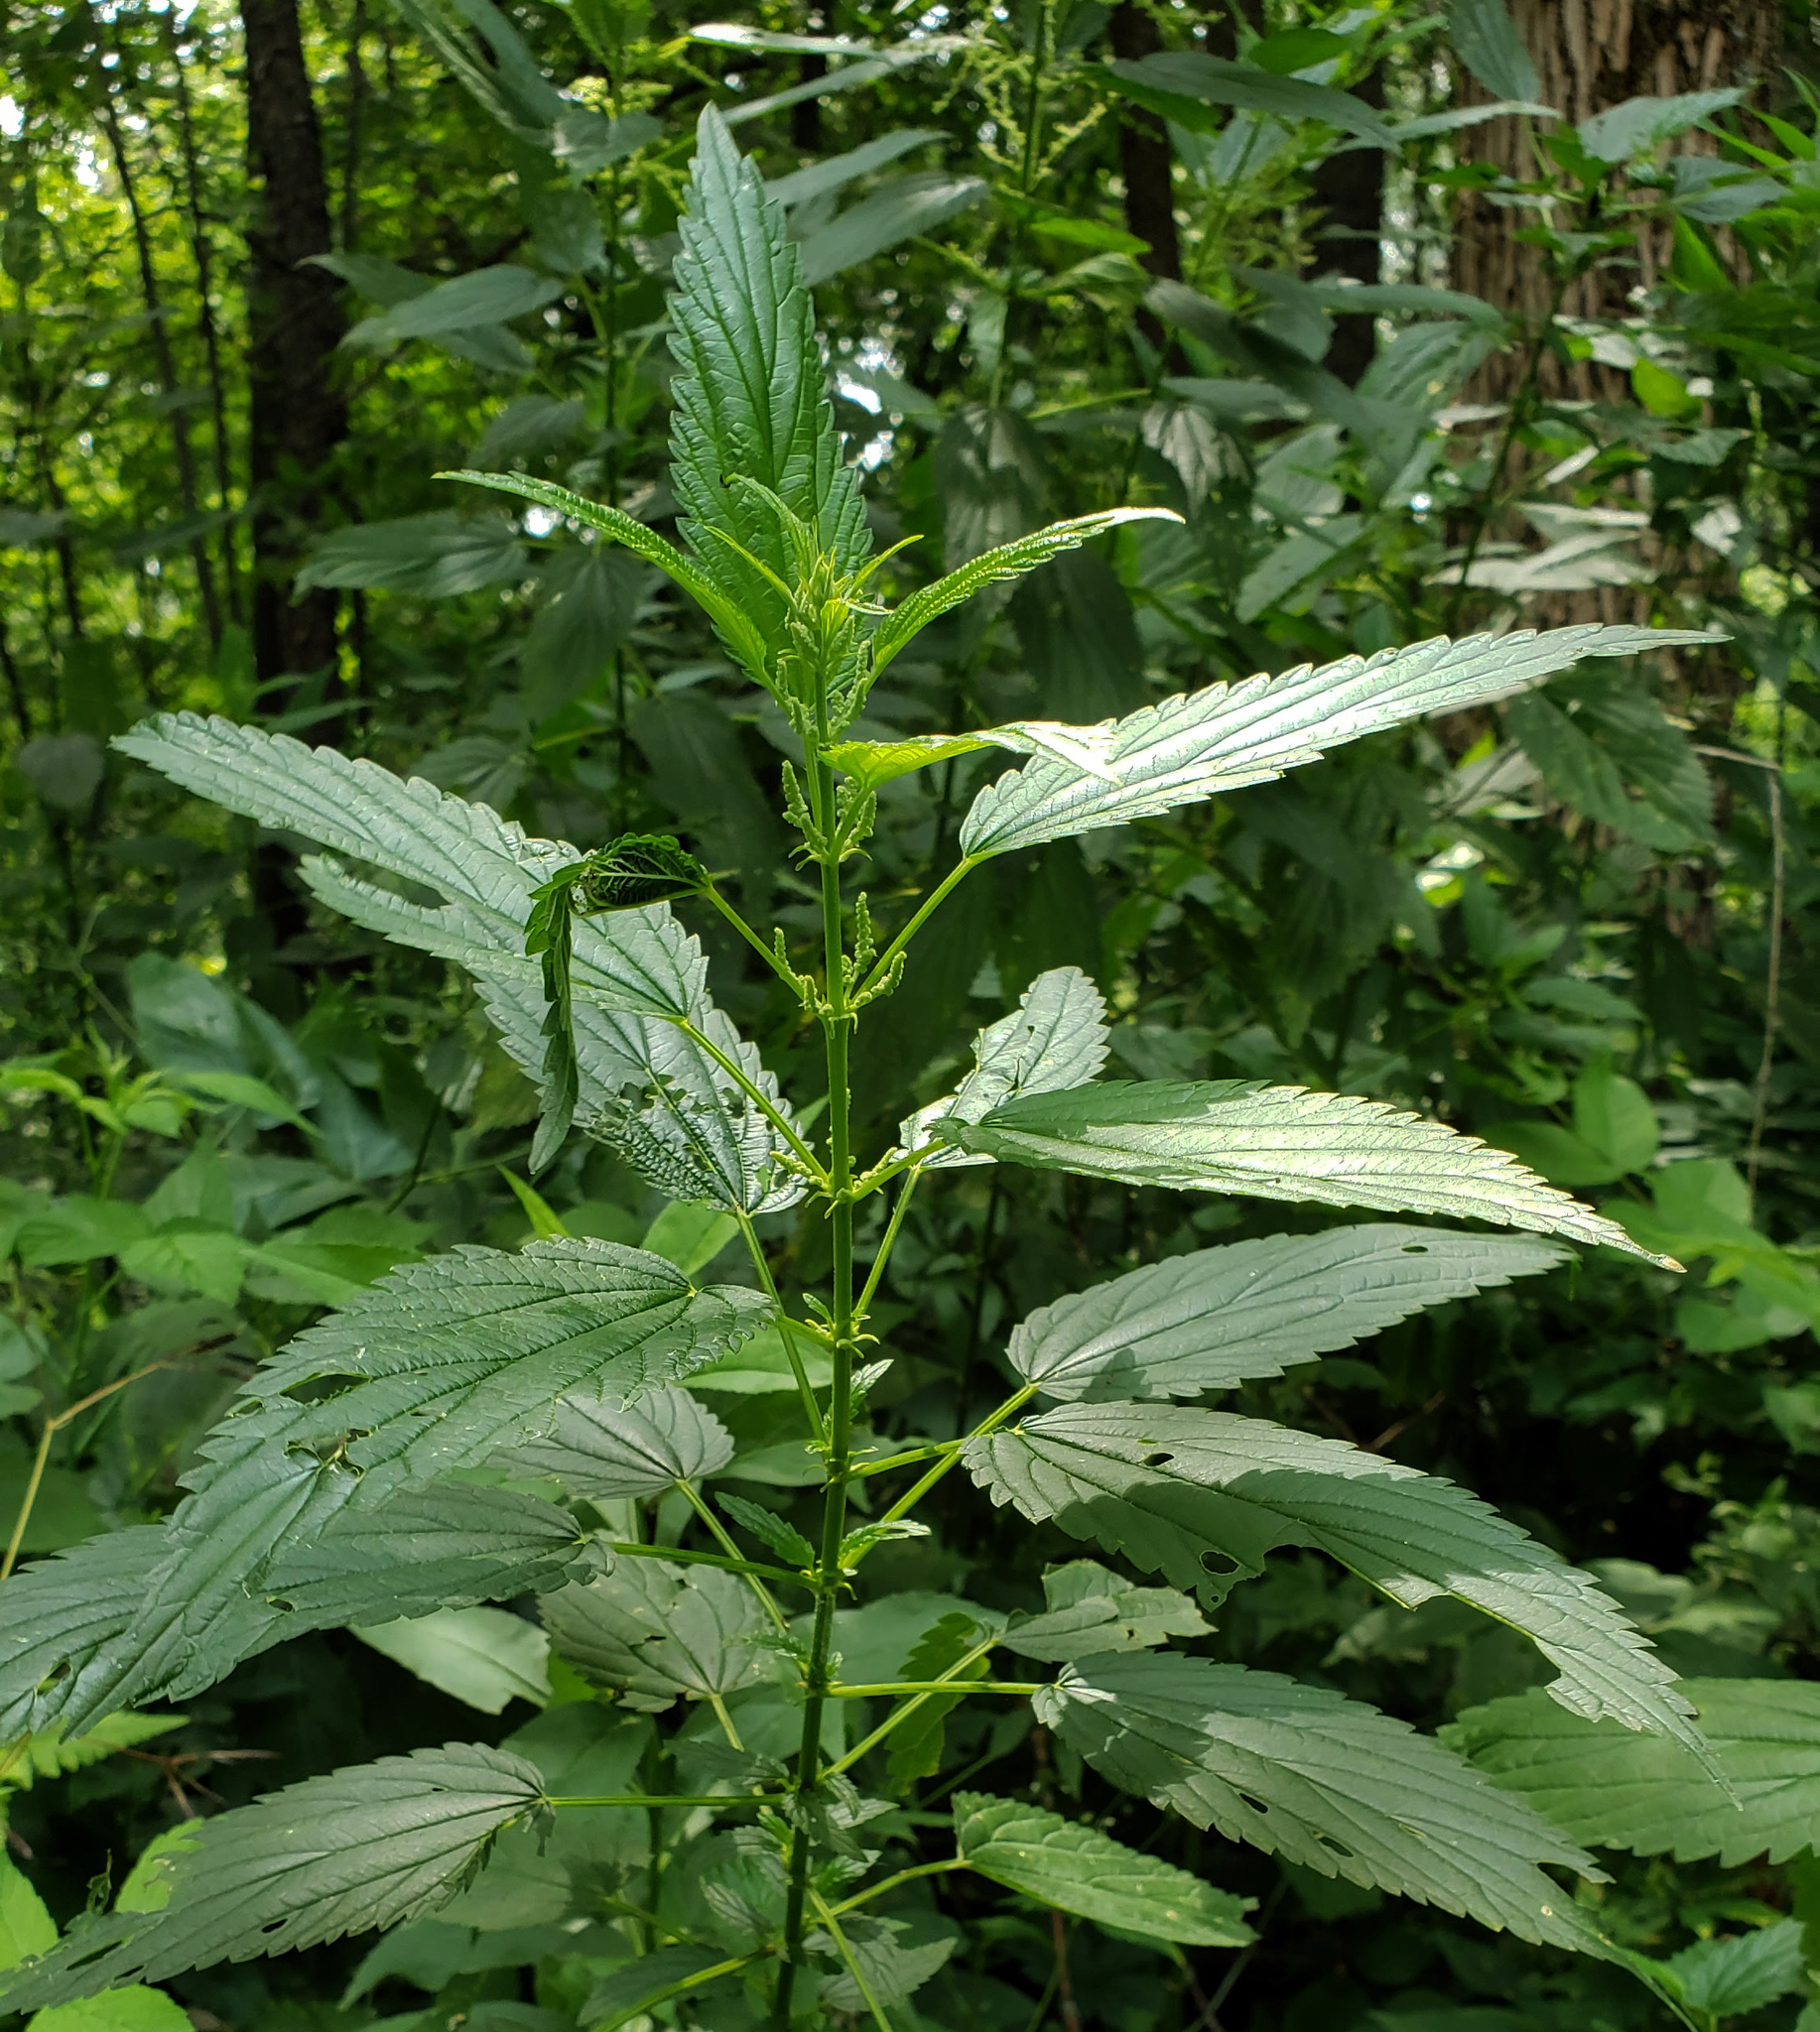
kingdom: Plantae
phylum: Tracheophyta
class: Magnoliopsida
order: Rosales
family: Urticaceae
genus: Urtica
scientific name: Urtica dioica
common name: Common nettle
